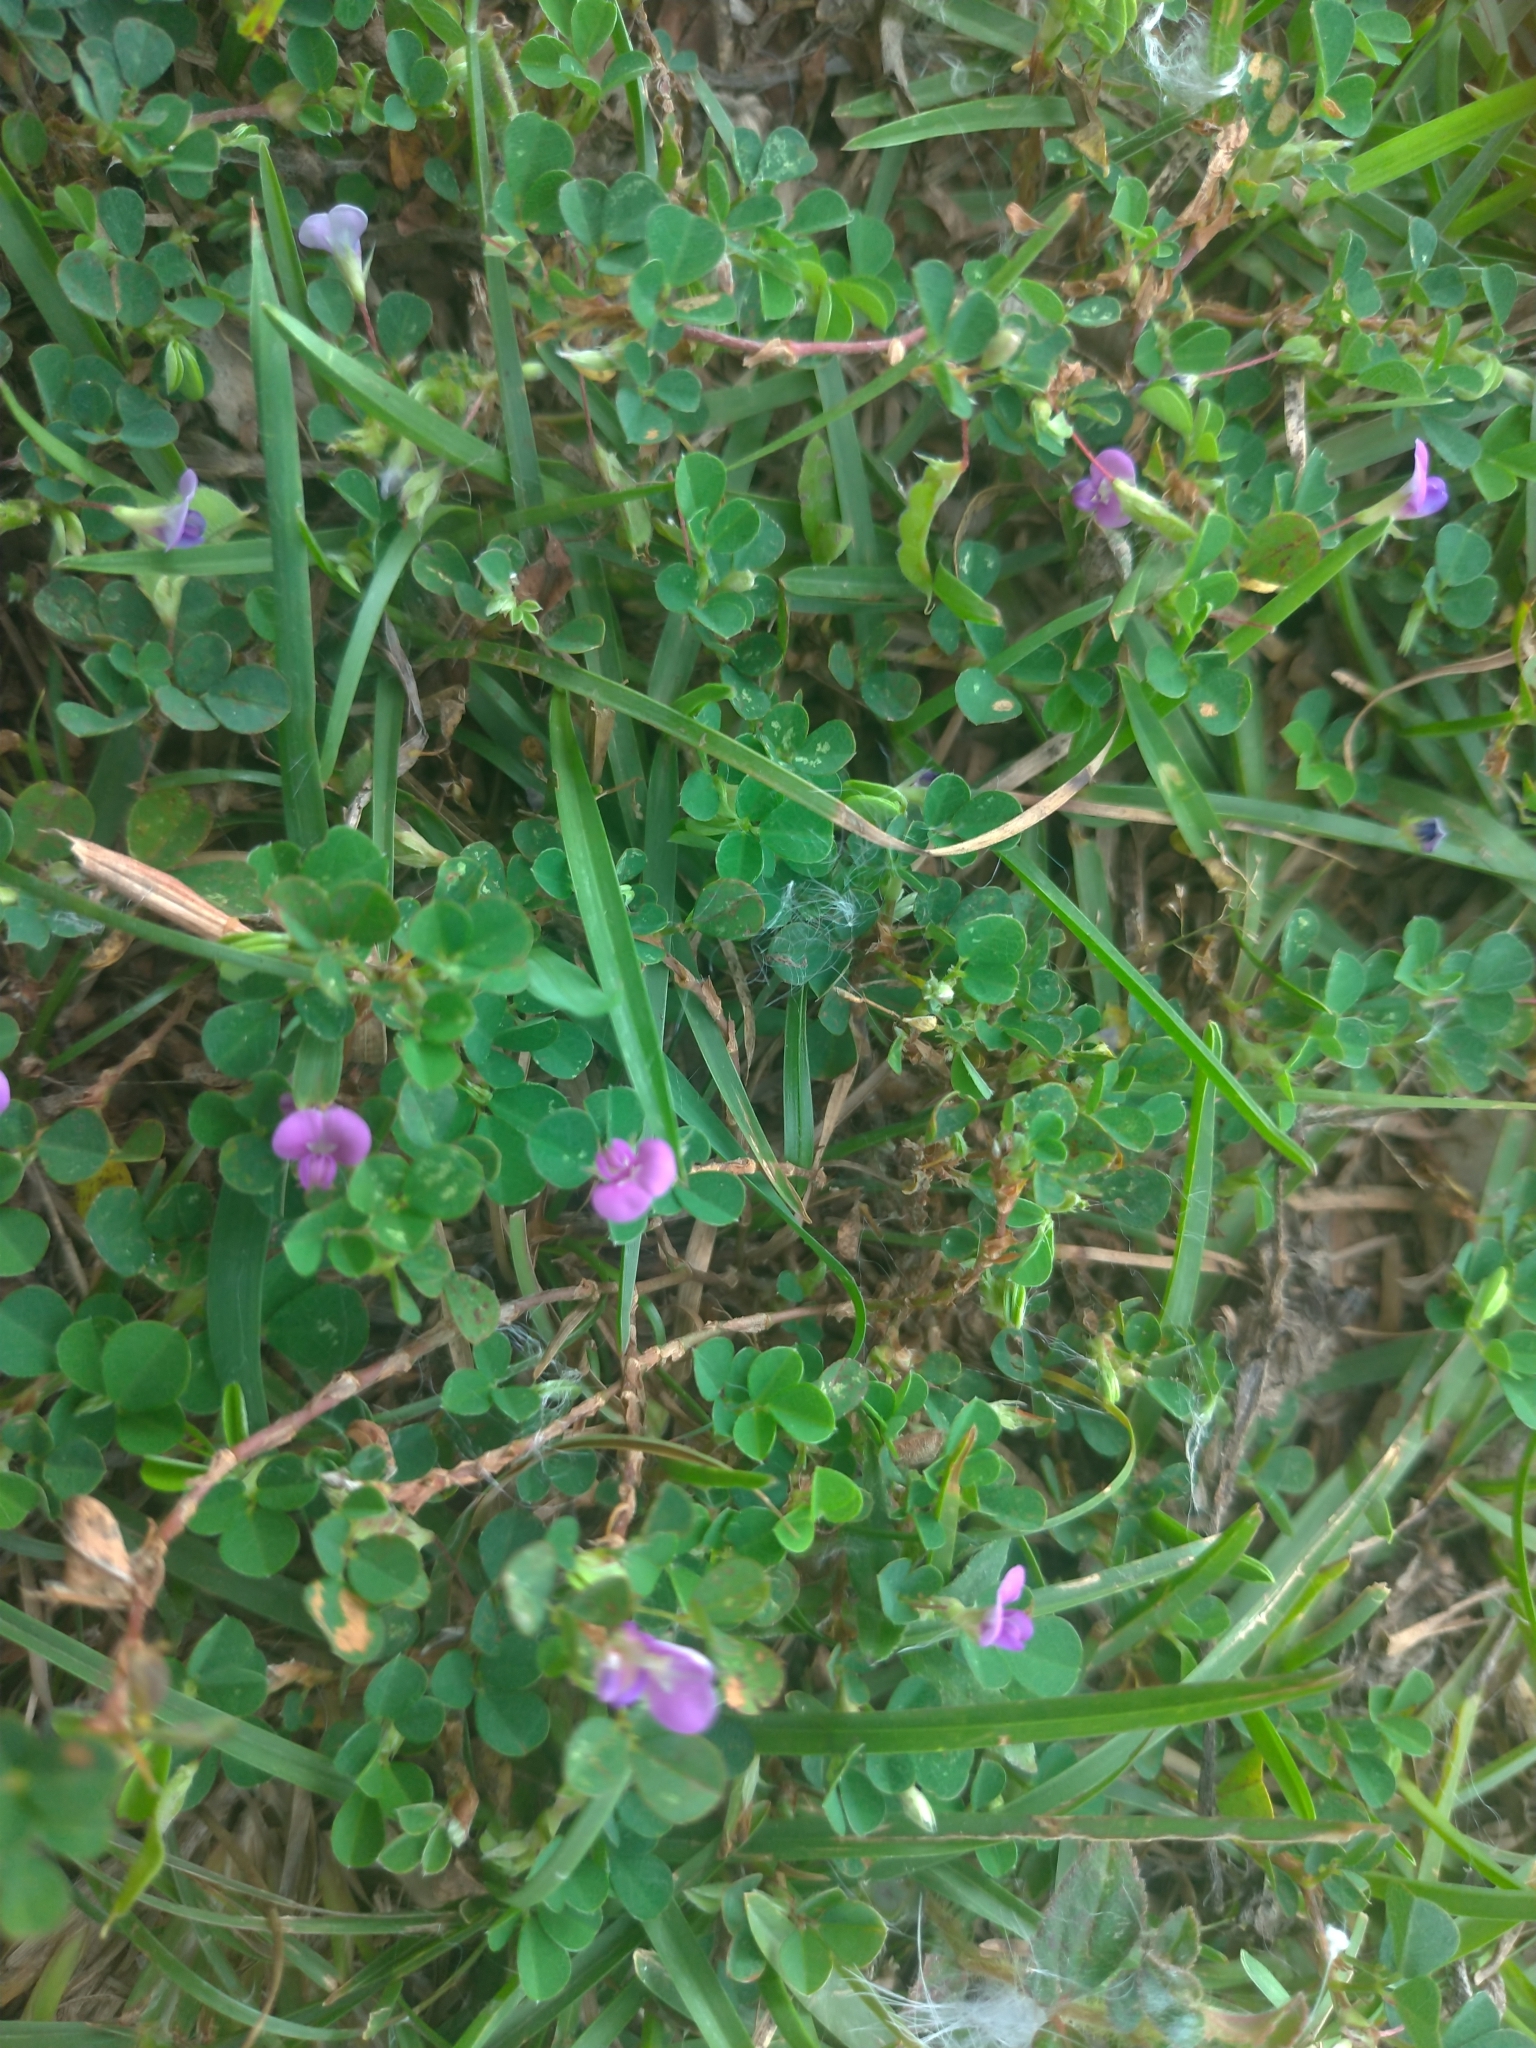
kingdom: Plantae
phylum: Tracheophyta
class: Magnoliopsida
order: Fabales
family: Fabaceae
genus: Grona
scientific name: Grona triflora
